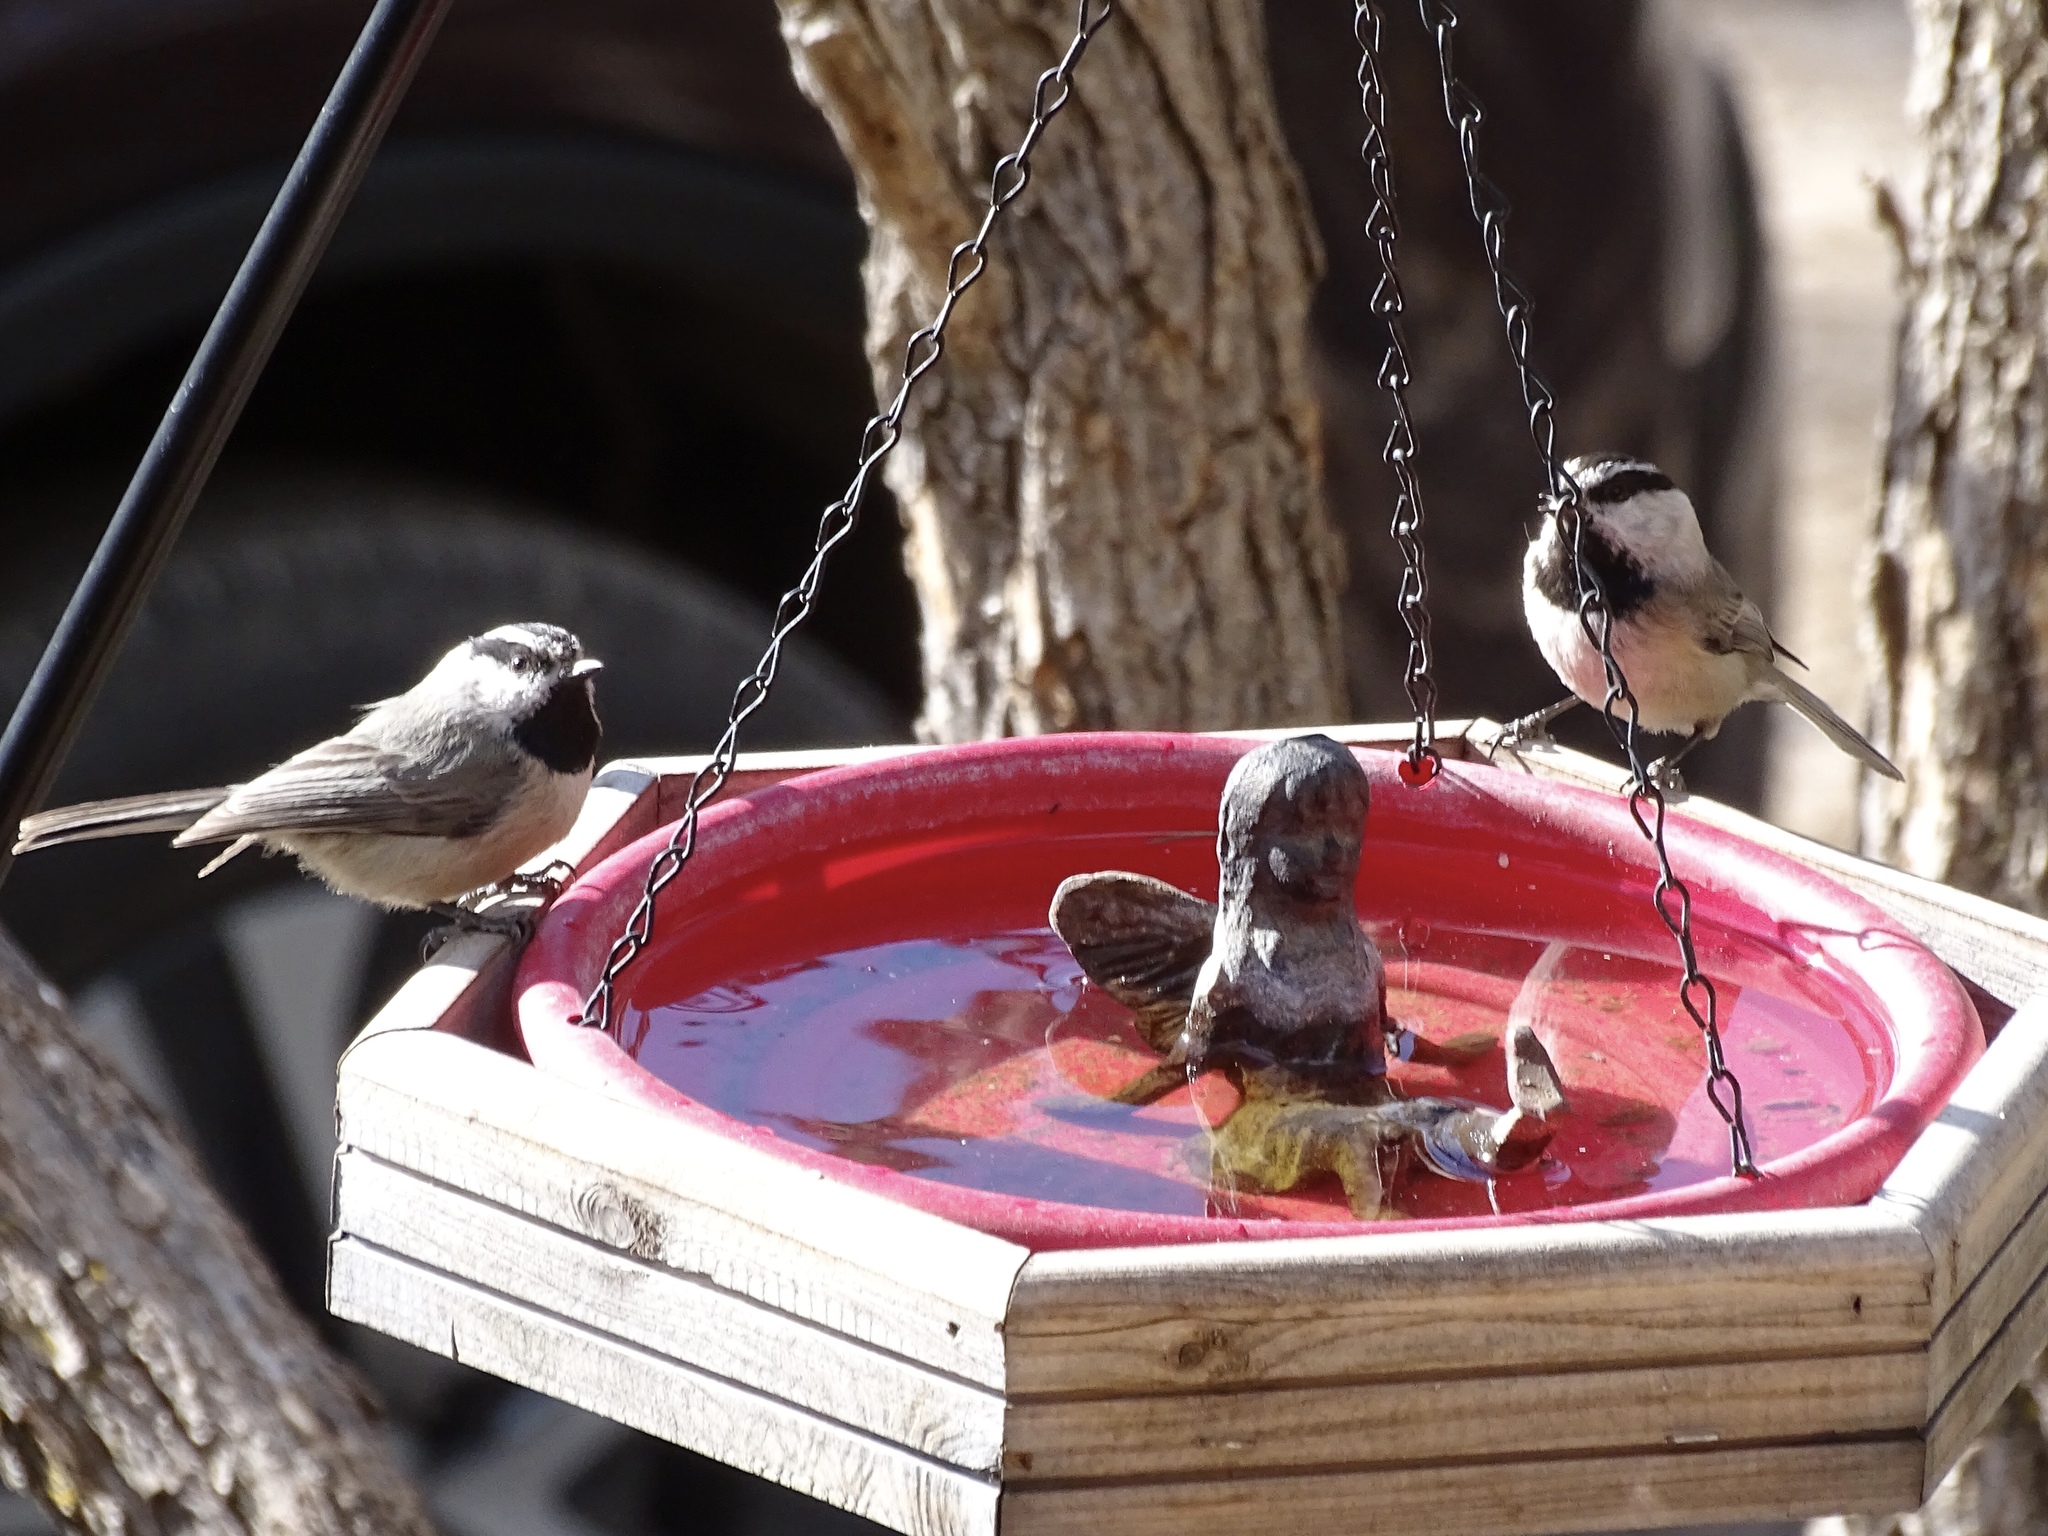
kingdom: Animalia
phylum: Chordata
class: Aves
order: Passeriformes
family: Paridae
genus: Poecile
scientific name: Poecile gambeli
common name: Mountain chickadee
